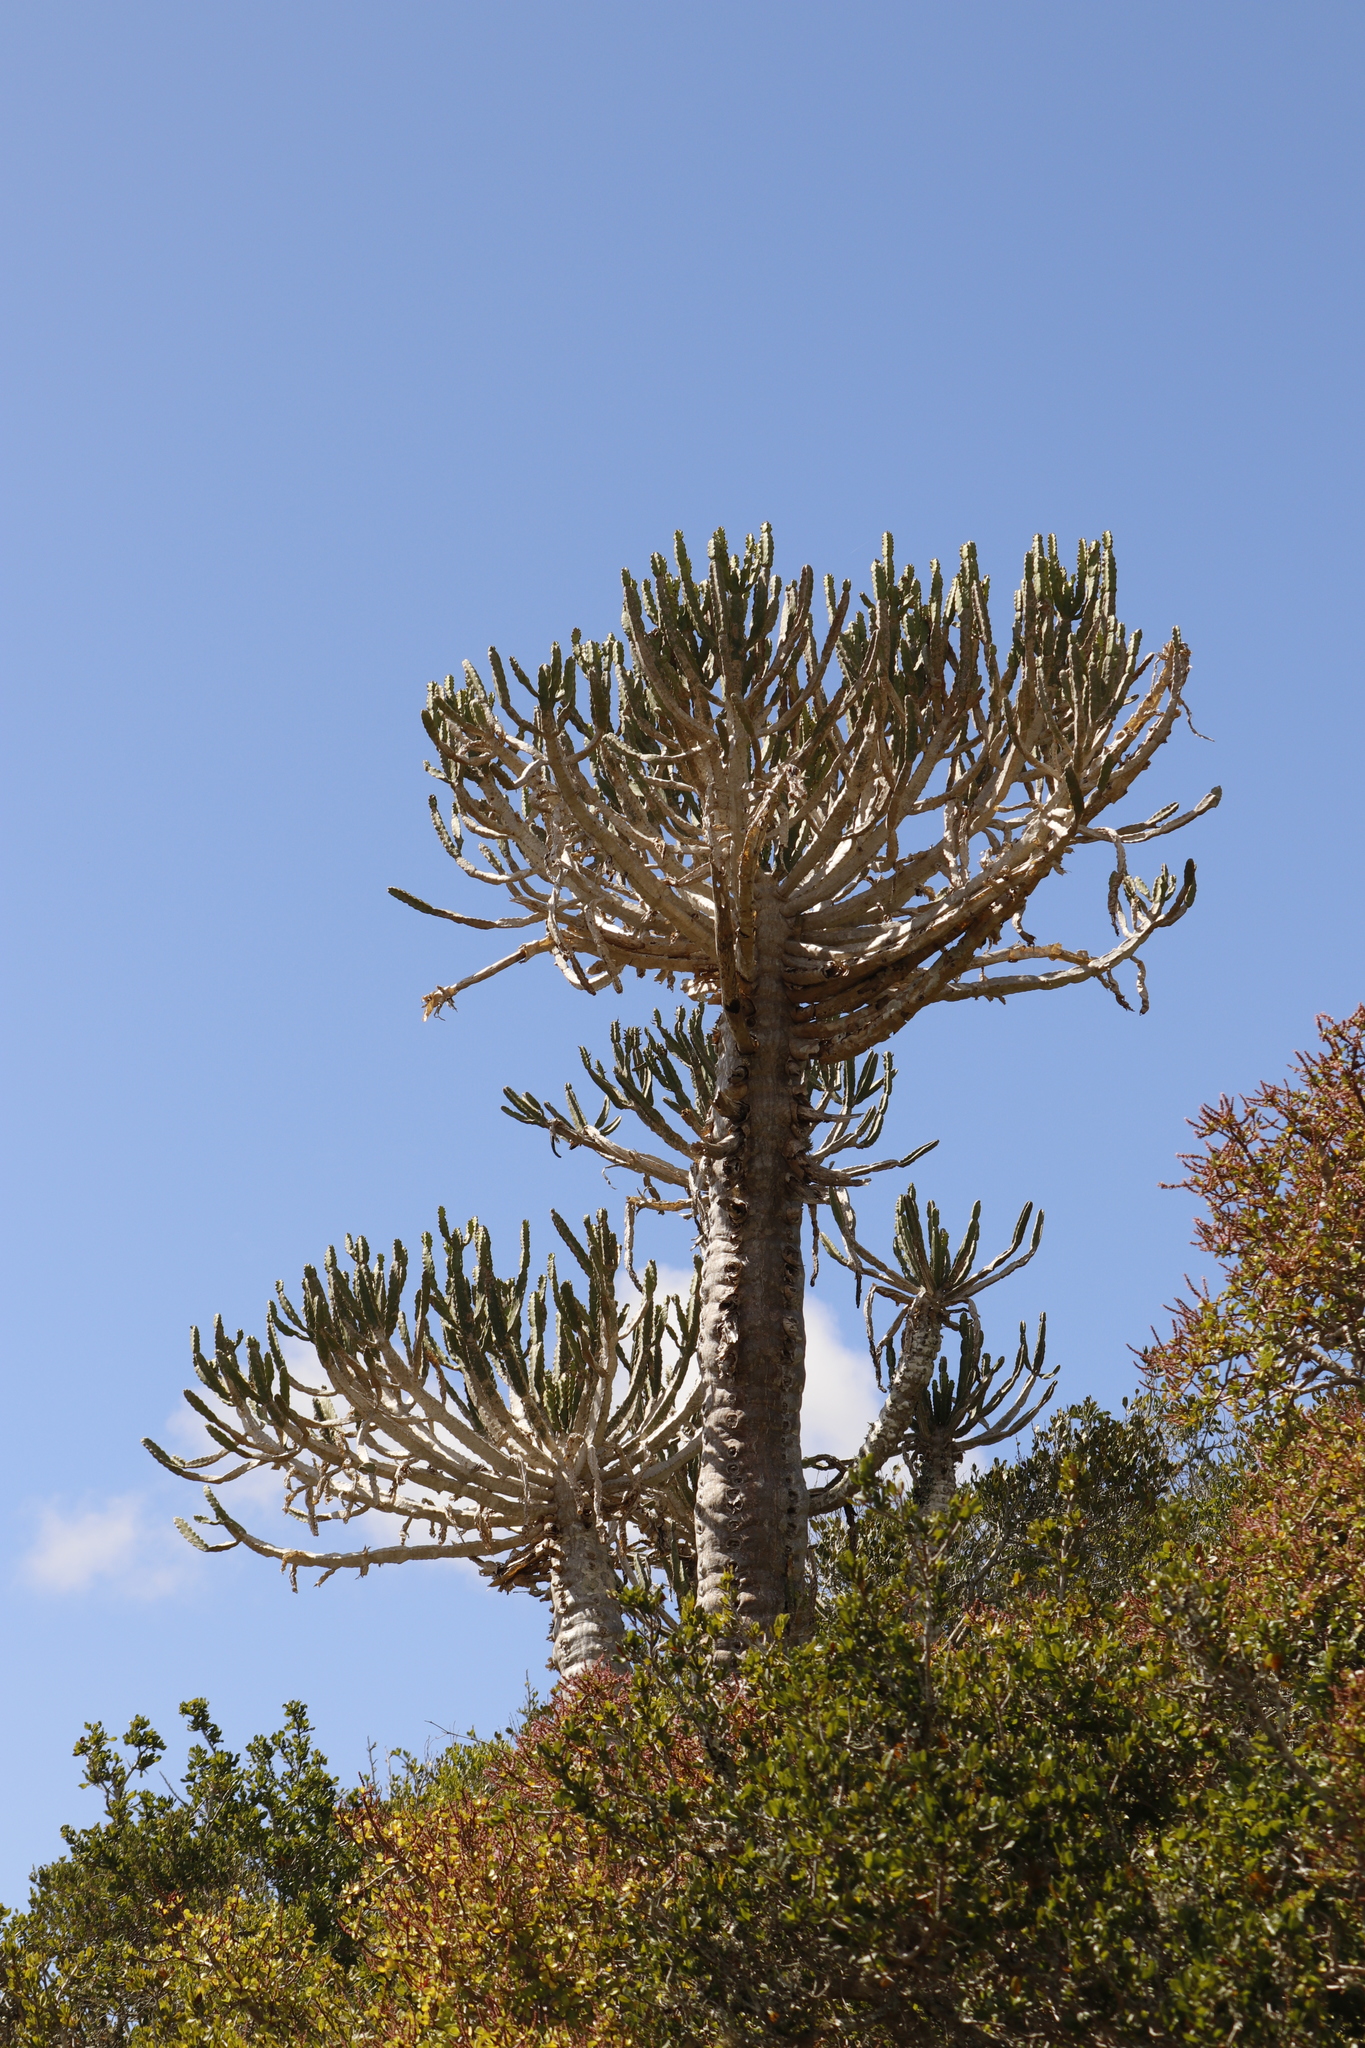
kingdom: Plantae
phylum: Tracheophyta
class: Magnoliopsida
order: Malpighiales
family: Euphorbiaceae
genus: Euphorbia
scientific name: Euphorbia triangularis
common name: Chandelier tree
